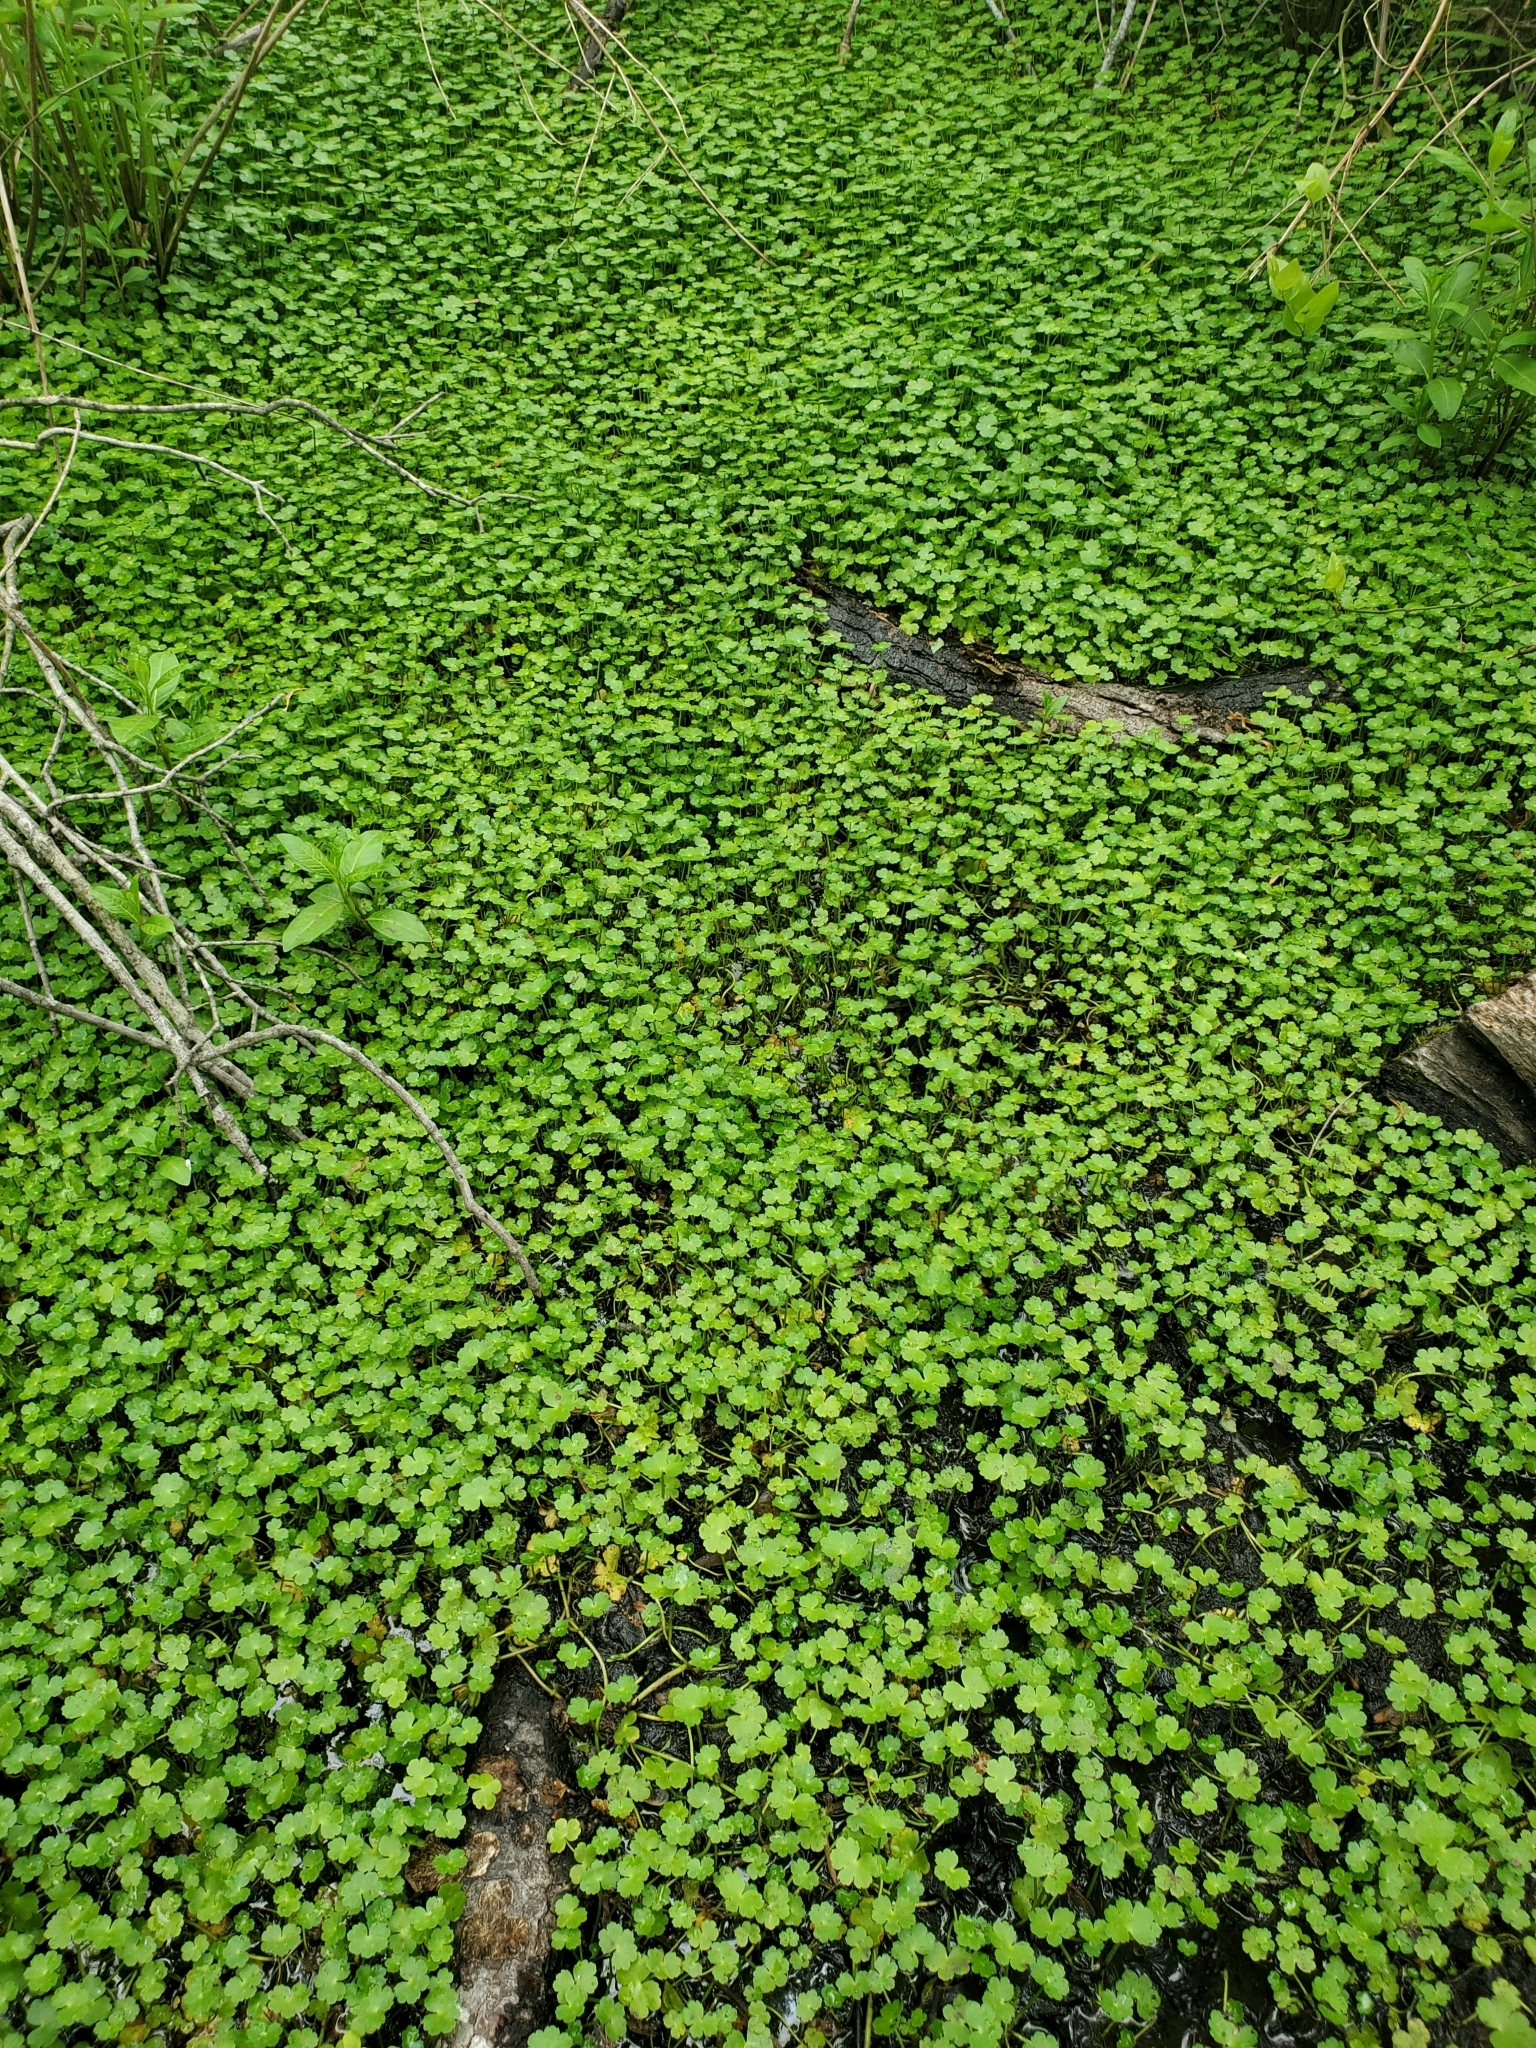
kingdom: Plantae
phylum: Tracheophyta
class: Magnoliopsida
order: Apiales
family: Araliaceae
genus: Hydrocotyle
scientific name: Hydrocotyle ranunculoides
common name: Floating pennywort
